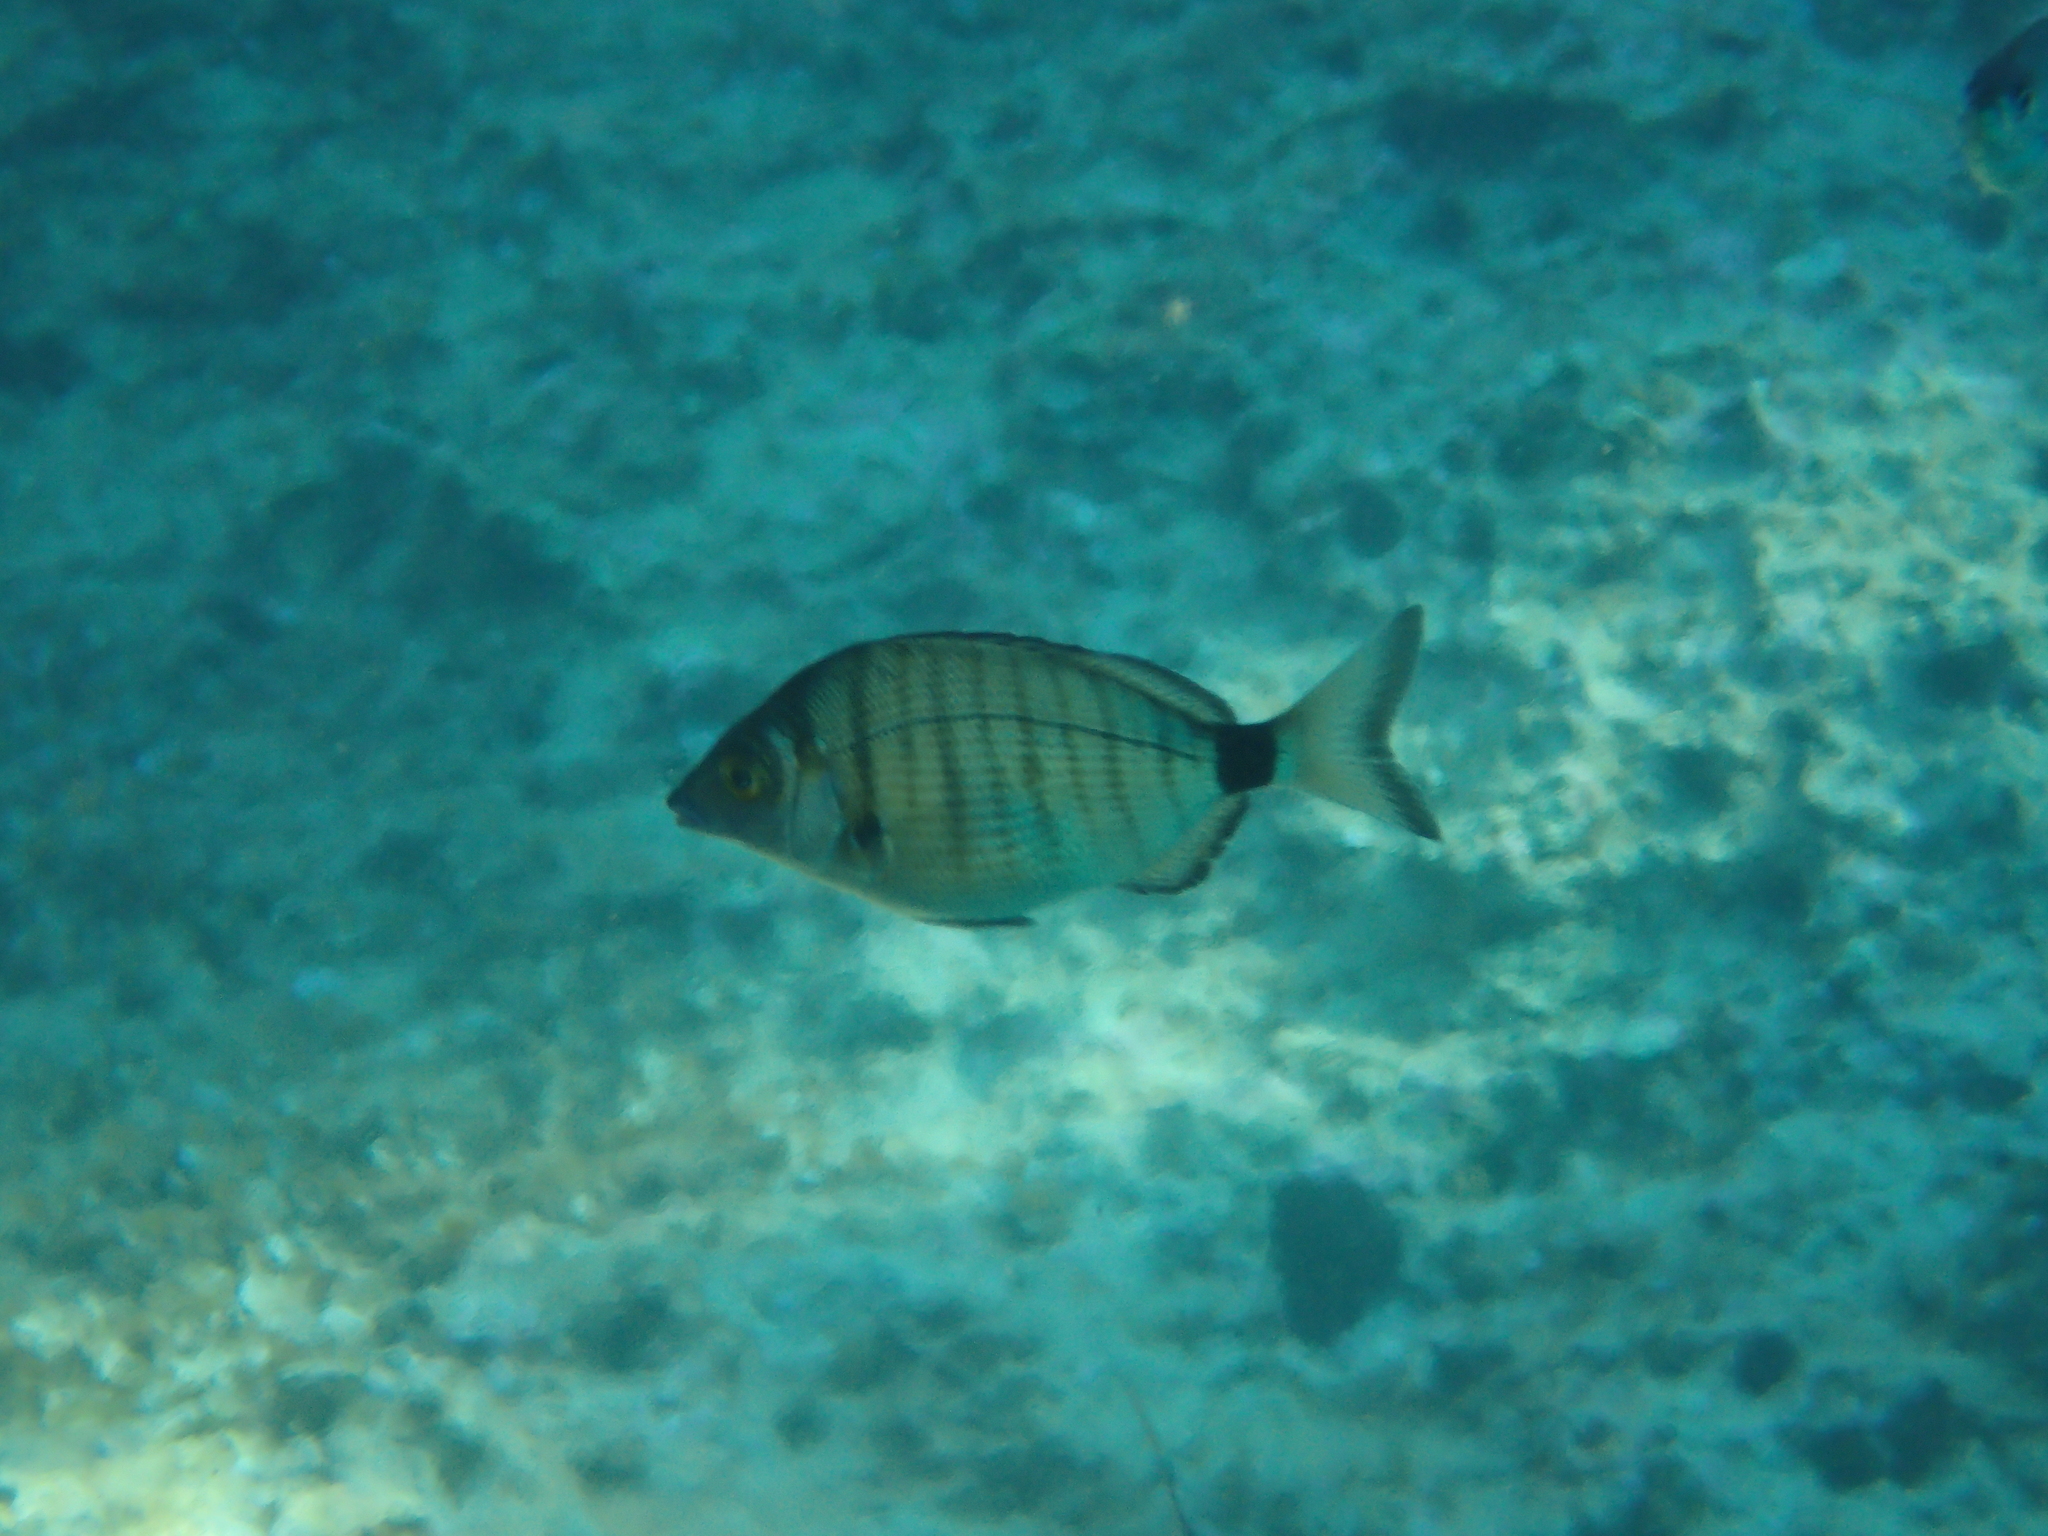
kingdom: Animalia
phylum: Chordata
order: Perciformes
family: Sparidae
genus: Diplodus
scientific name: Diplodus puntazzo
